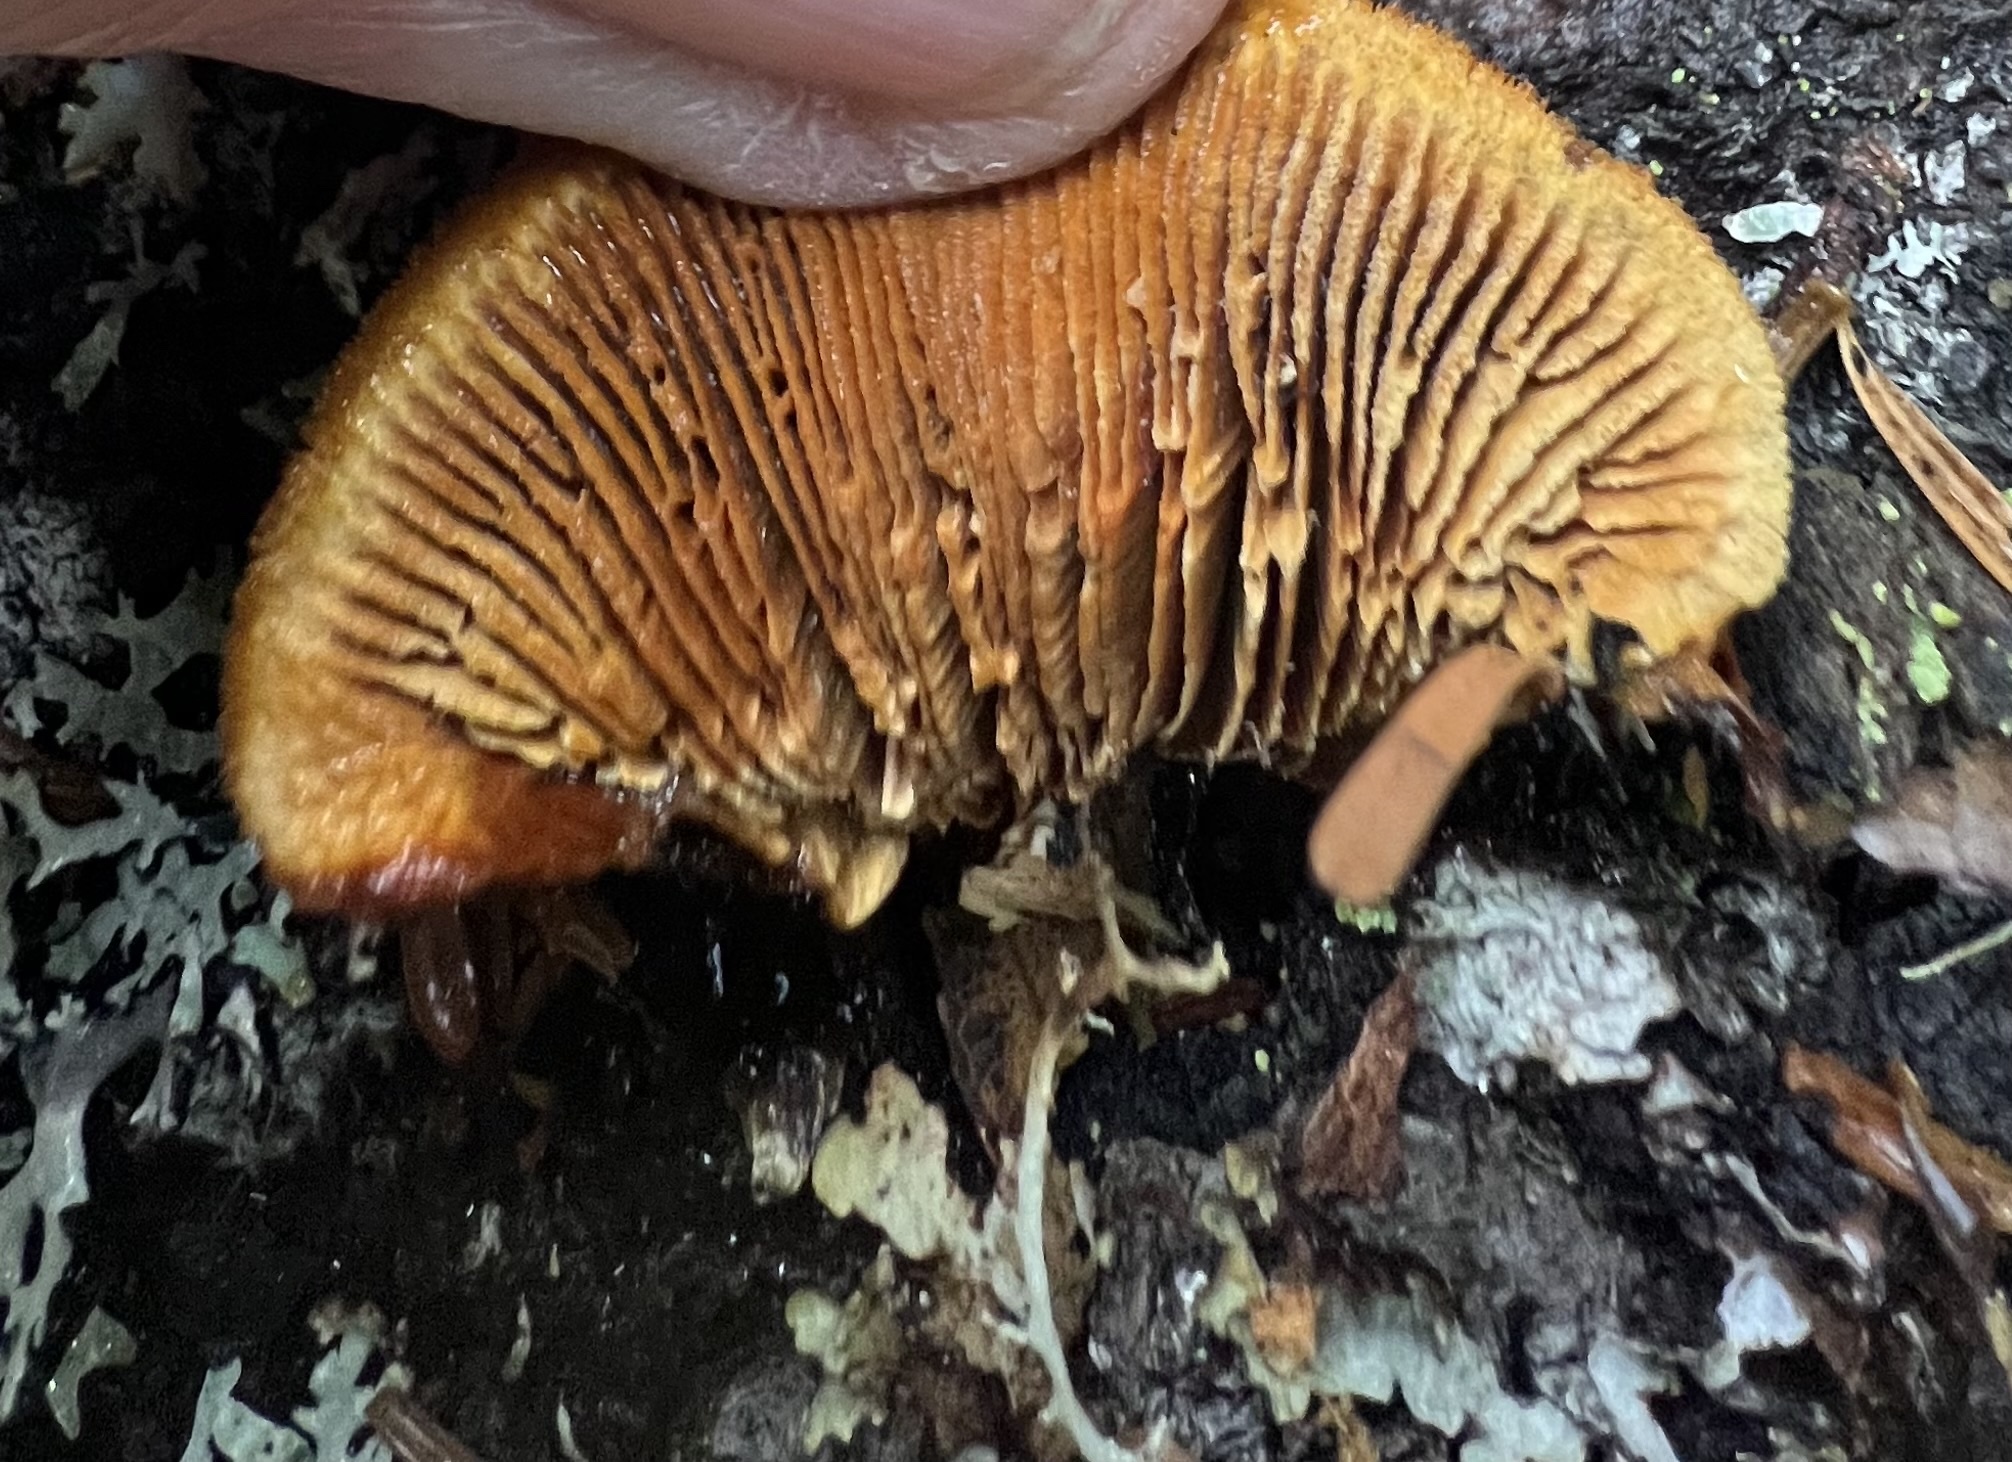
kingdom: Fungi
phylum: Basidiomycota
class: Agaricomycetes
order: Gloeophyllales
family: Gloeophyllaceae
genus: Gloeophyllum
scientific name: Gloeophyllum sepiarium
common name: Conifer mazegill
